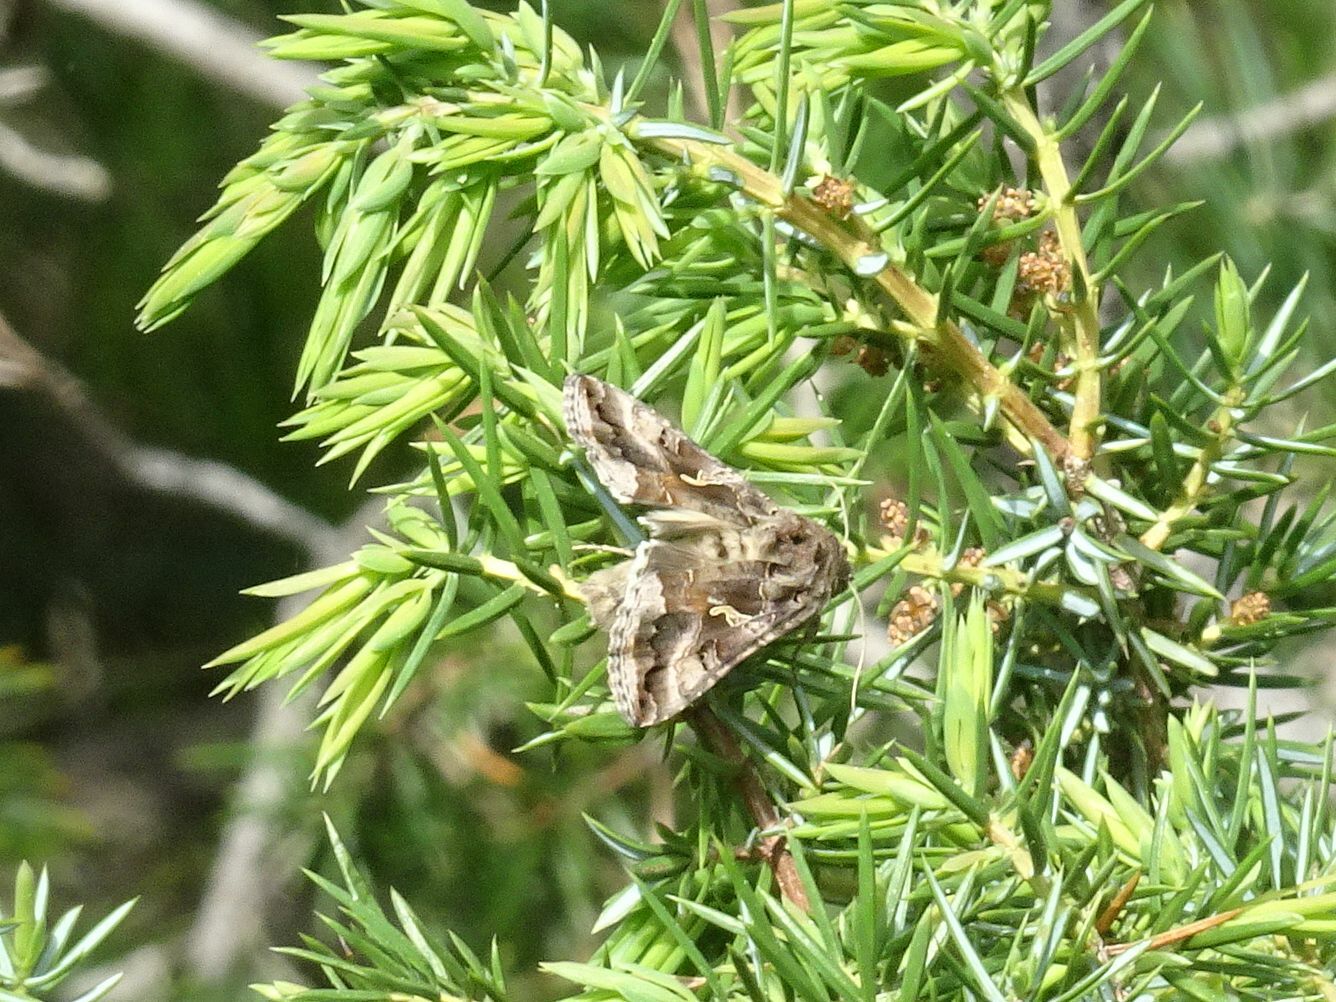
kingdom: Animalia
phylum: Arthropoda
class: Insecta
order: Lepidoptera
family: Noctuidae
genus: Autographa
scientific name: Autographa gamma
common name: Silver y
